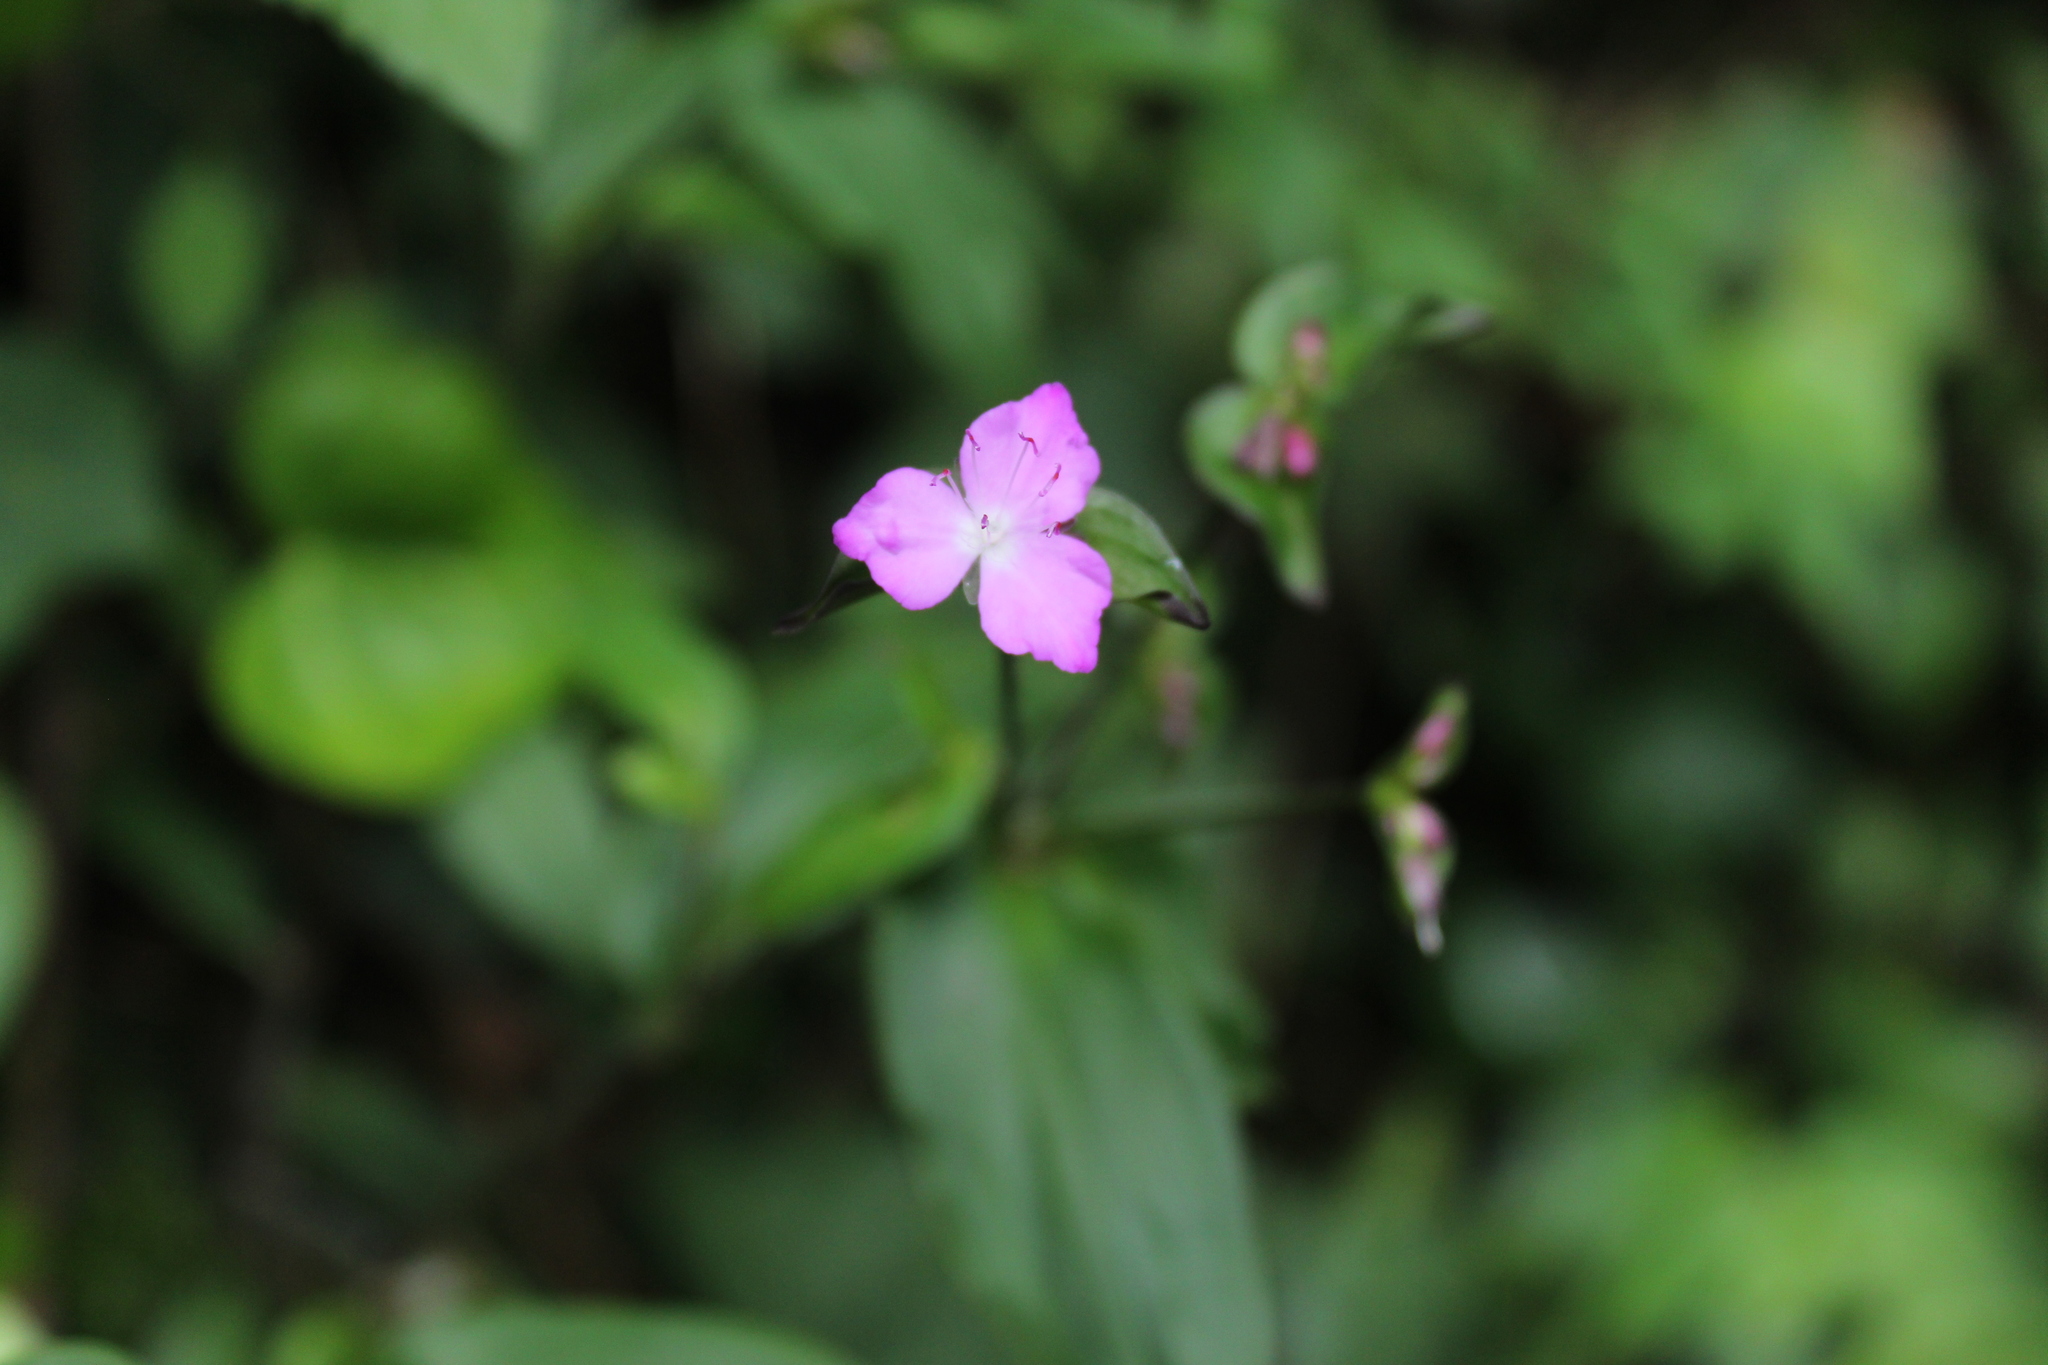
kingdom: Plantae
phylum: Tracheophyta
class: Liliopsida
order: Commelinales
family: Commelinaceae
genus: Tradescantia
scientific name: Tradescantia commelinoides
